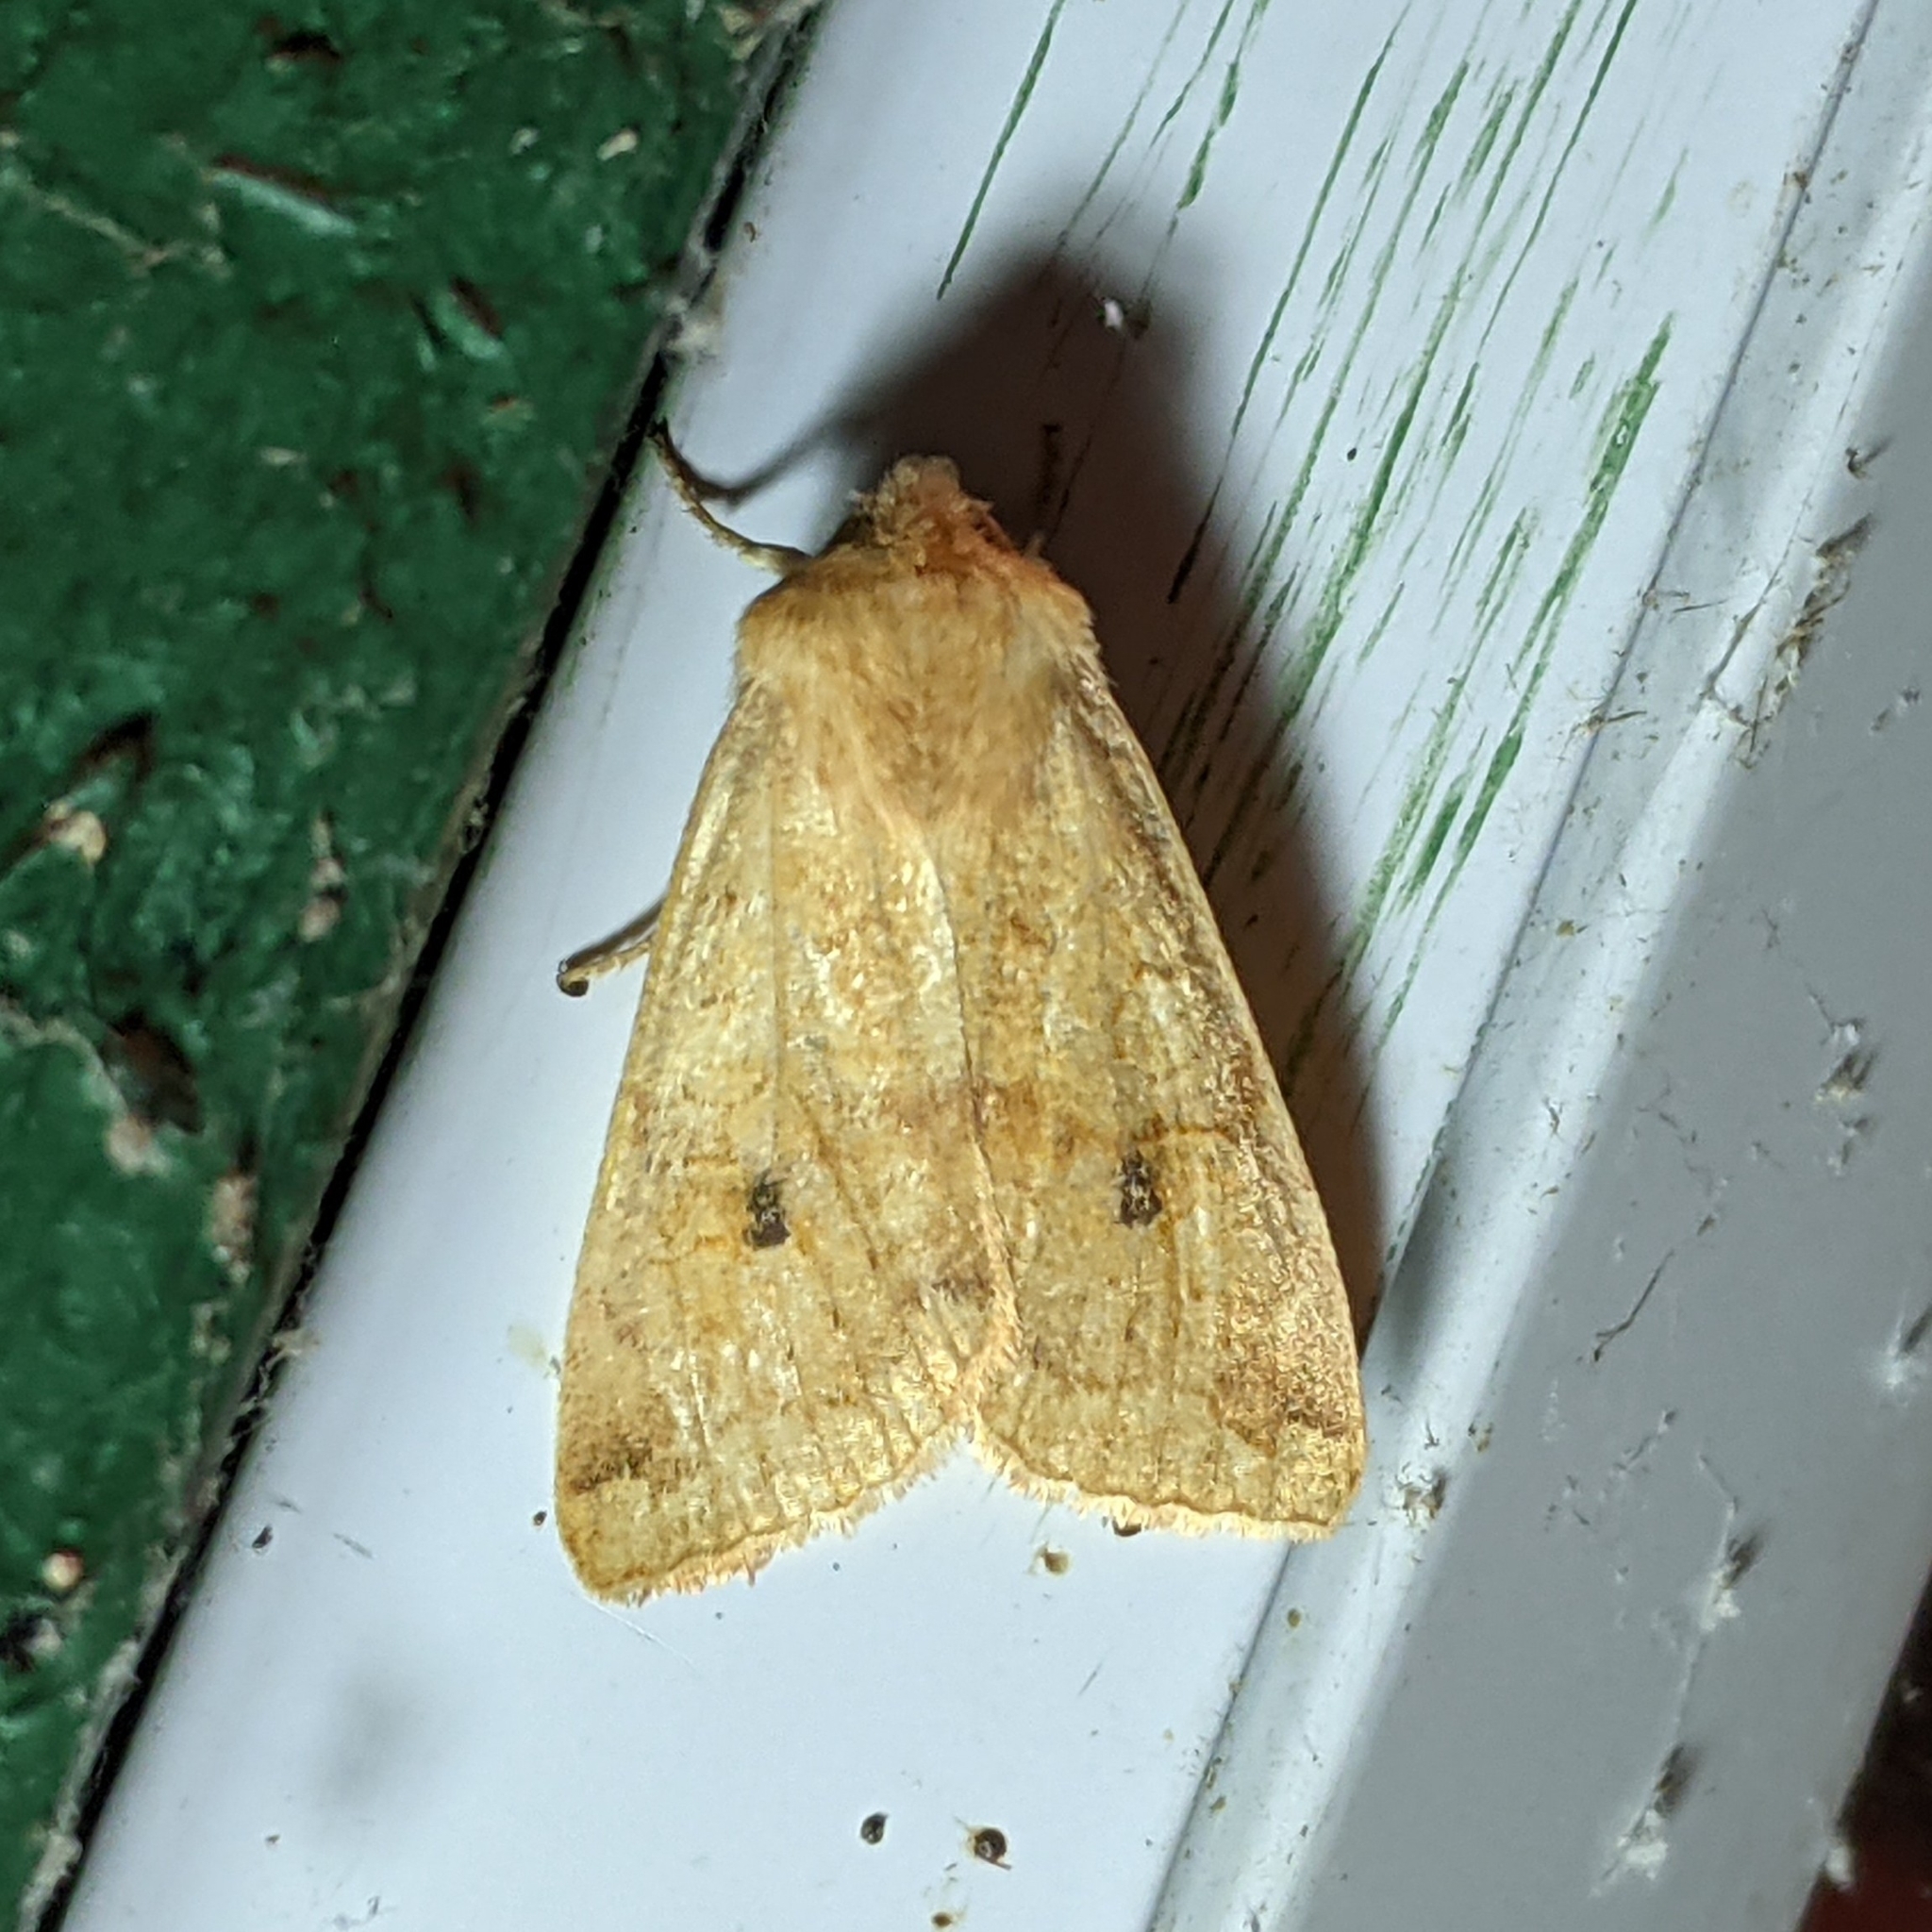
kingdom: Animalia
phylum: Arthropoda
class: Insecta
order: Lepidoptera
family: Noctuidae
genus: Agrochola
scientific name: Agrochola decipiens
